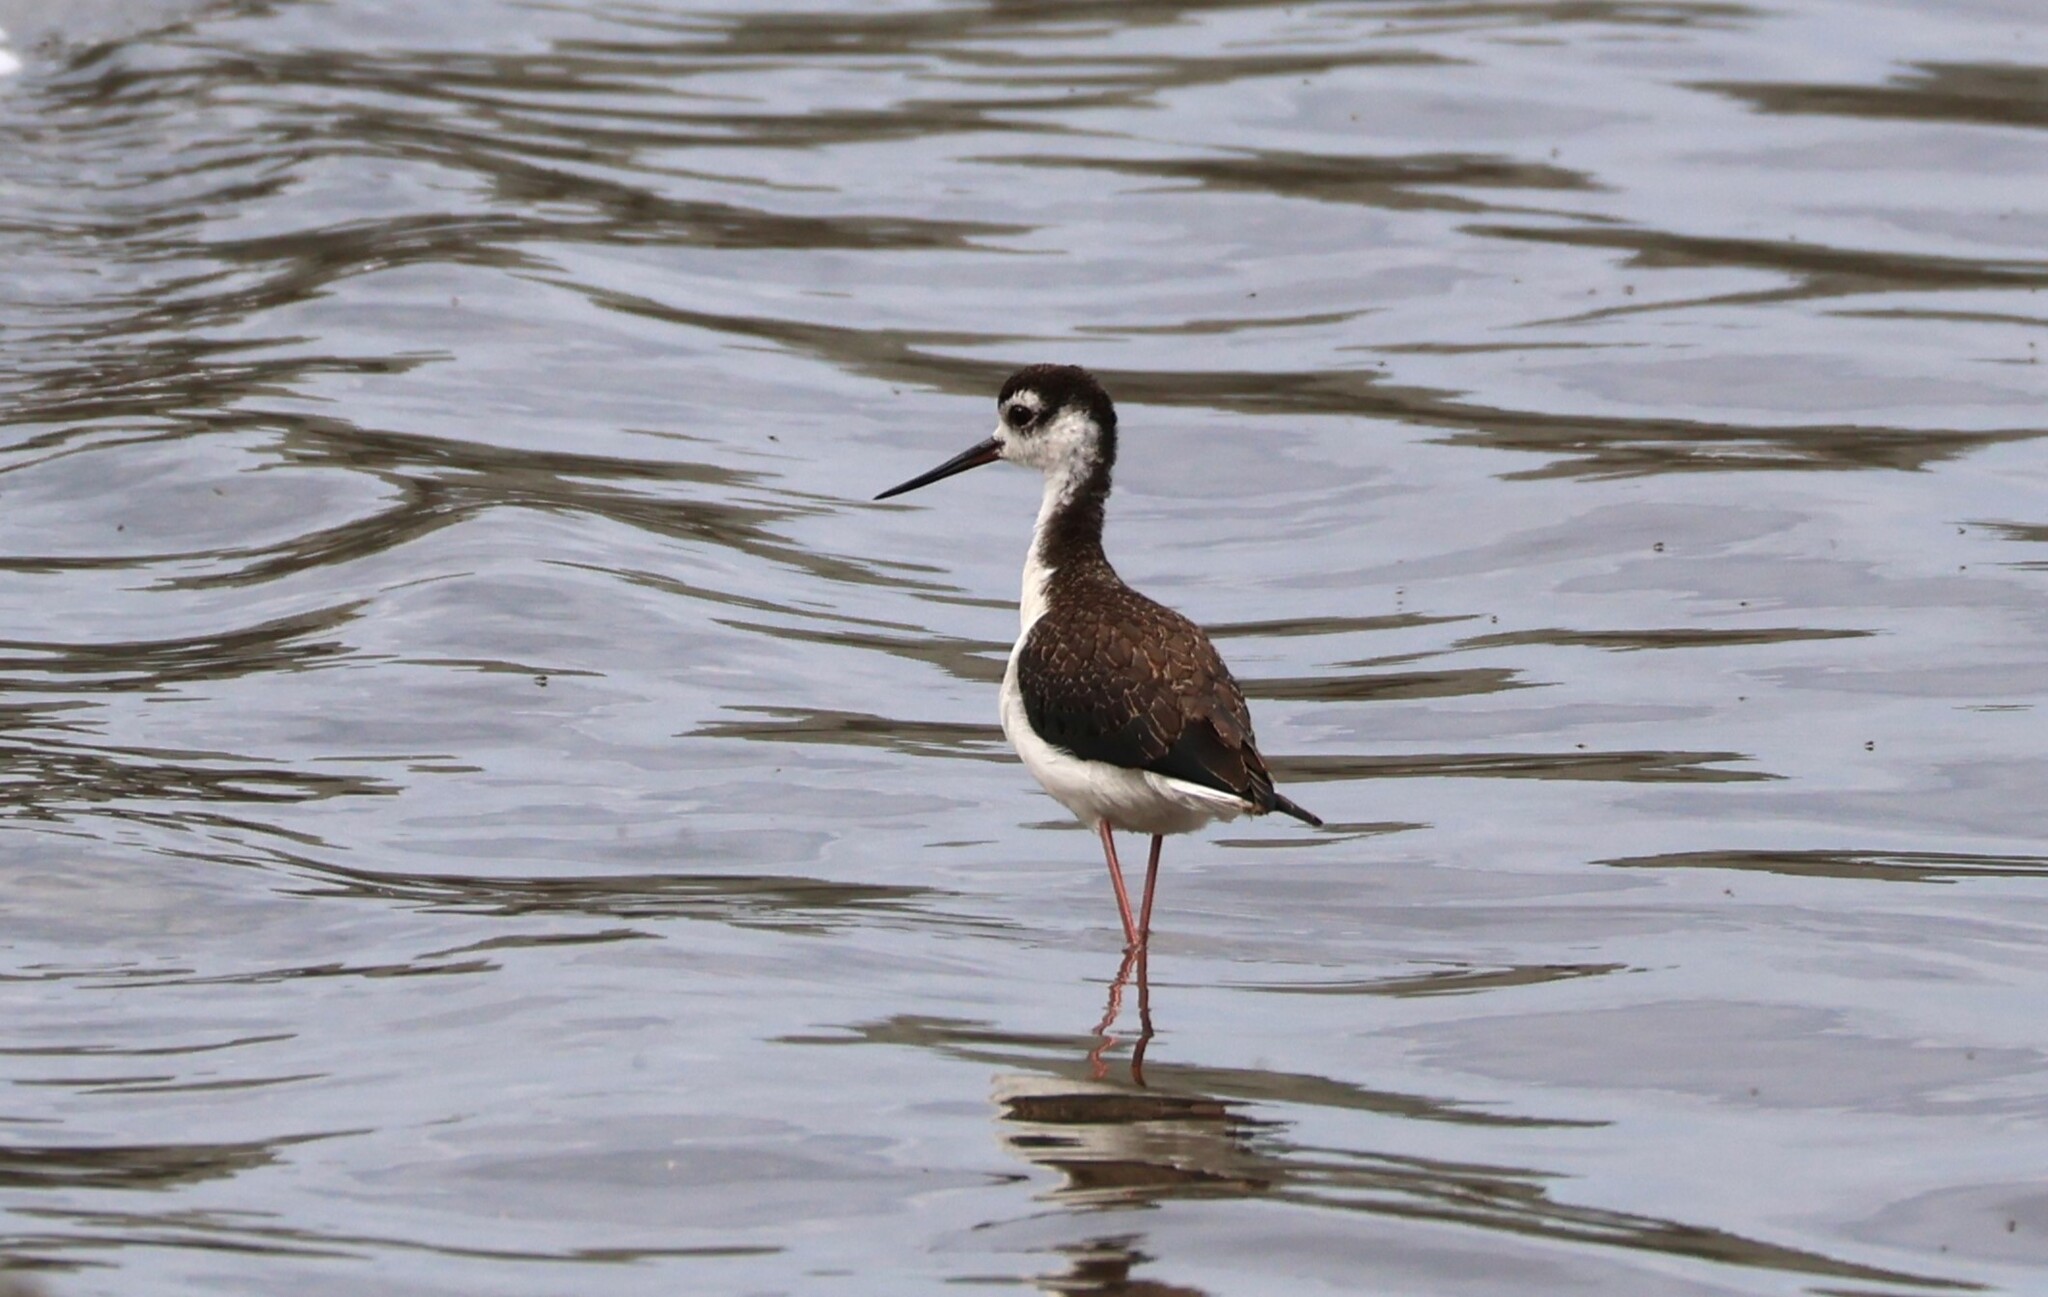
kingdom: Animalia
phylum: Chordata
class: Aves
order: Charadriiformes
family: Recurvirostridae
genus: Himantopus
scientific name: Himantopus mexicanus
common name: Black-necked stilt
